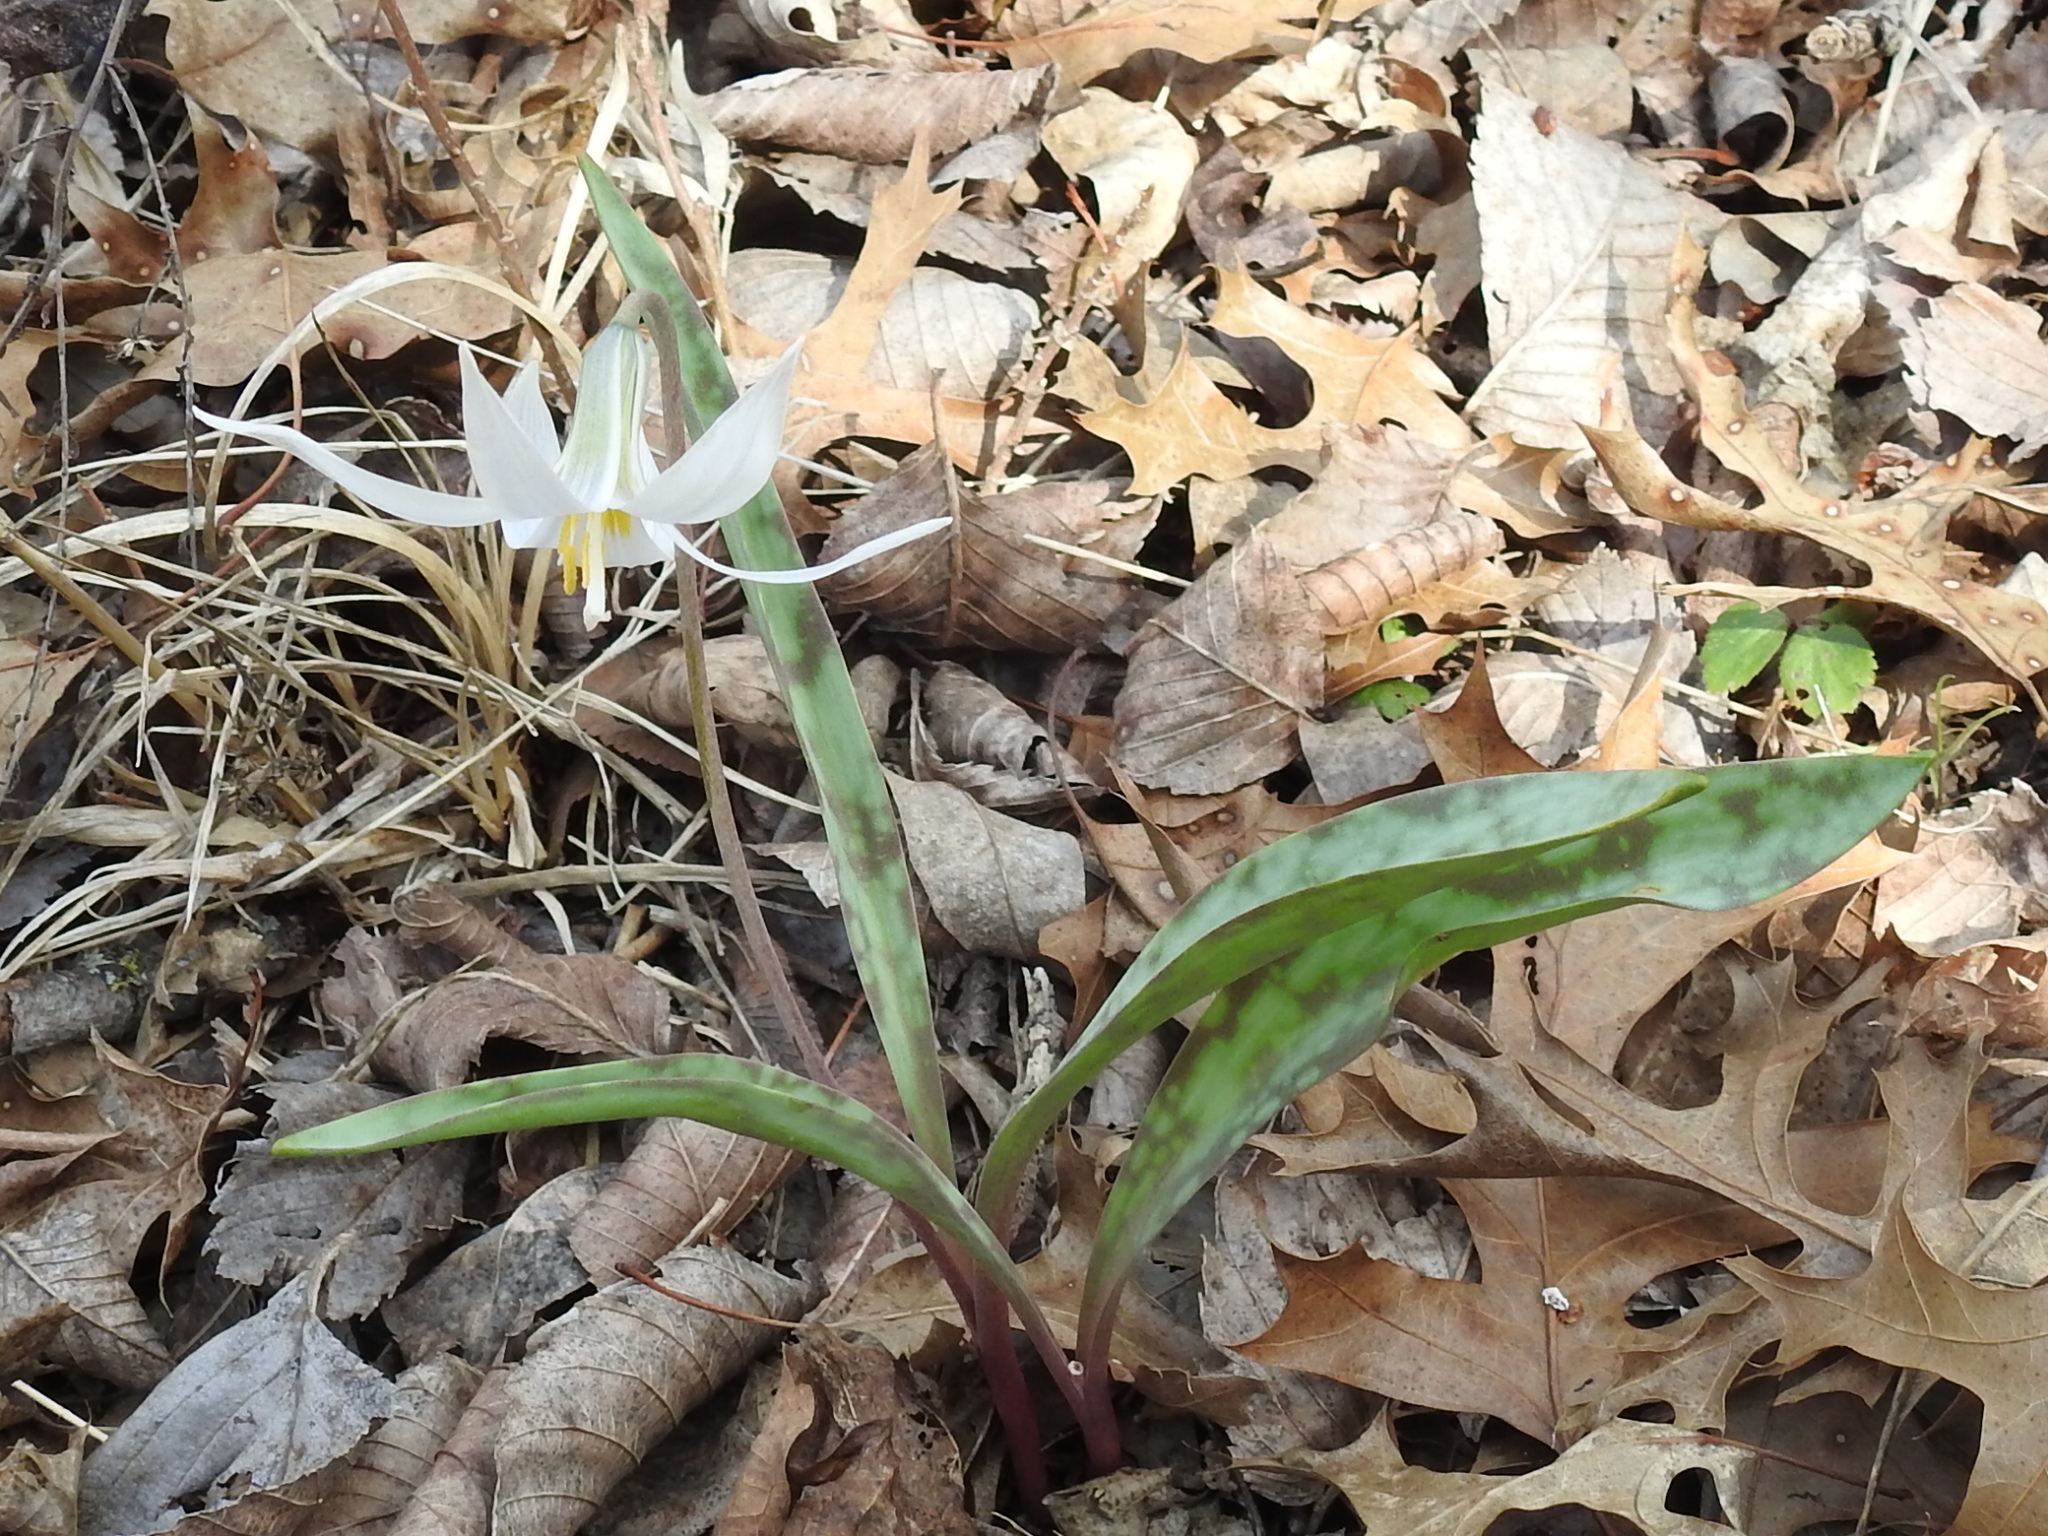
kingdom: Plantae
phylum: Tracheophyta
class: Liliopsida
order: Liliales
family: Liliaceae
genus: Erythronium
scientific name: Erythronium albidum
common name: White trout-lily
